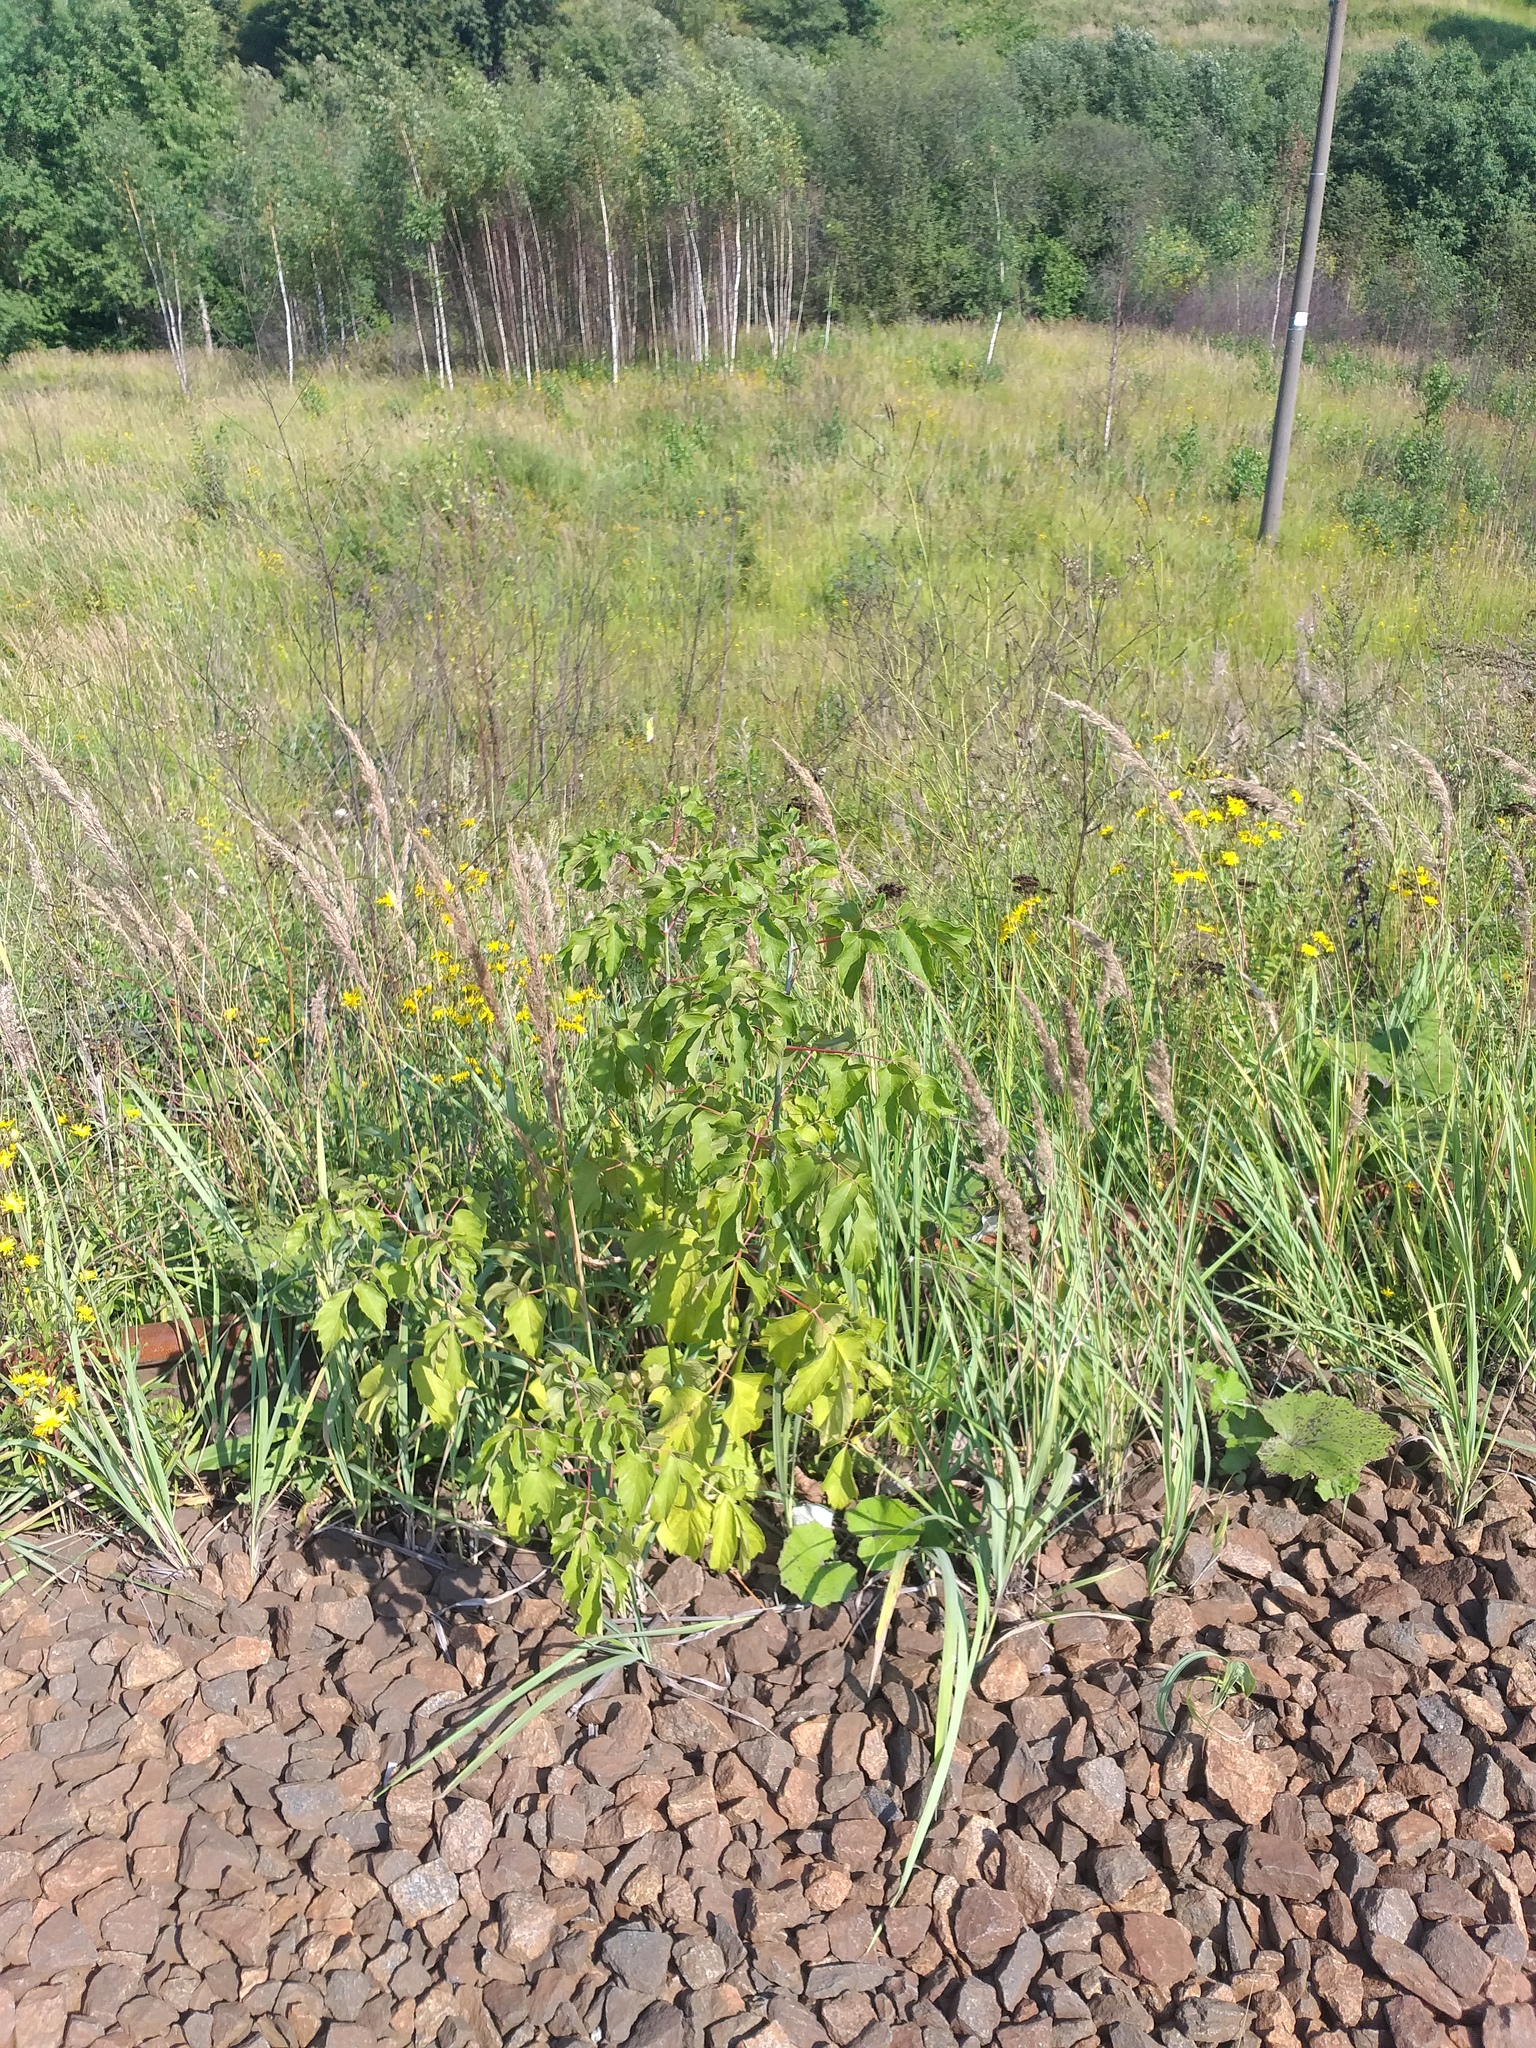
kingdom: Plantae
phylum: Tracheophyta
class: Magnoliopsida
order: Sapindales
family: Sapindaceae
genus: Acer
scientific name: Acer negundo
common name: Ashleaf maple
